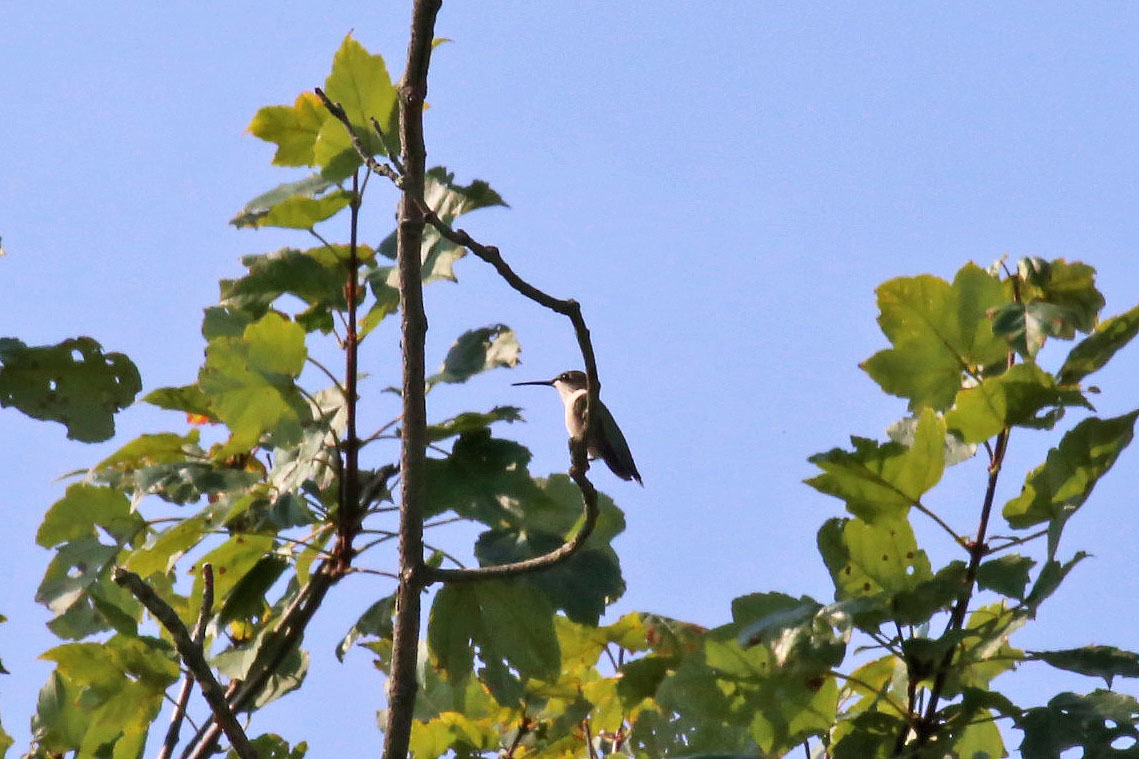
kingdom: Animalia
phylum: Chordata
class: Aves
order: Apodiformes
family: Trochilidae
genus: Archilochus
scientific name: Archilochus colubris
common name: Ruby-throated hummingbird
